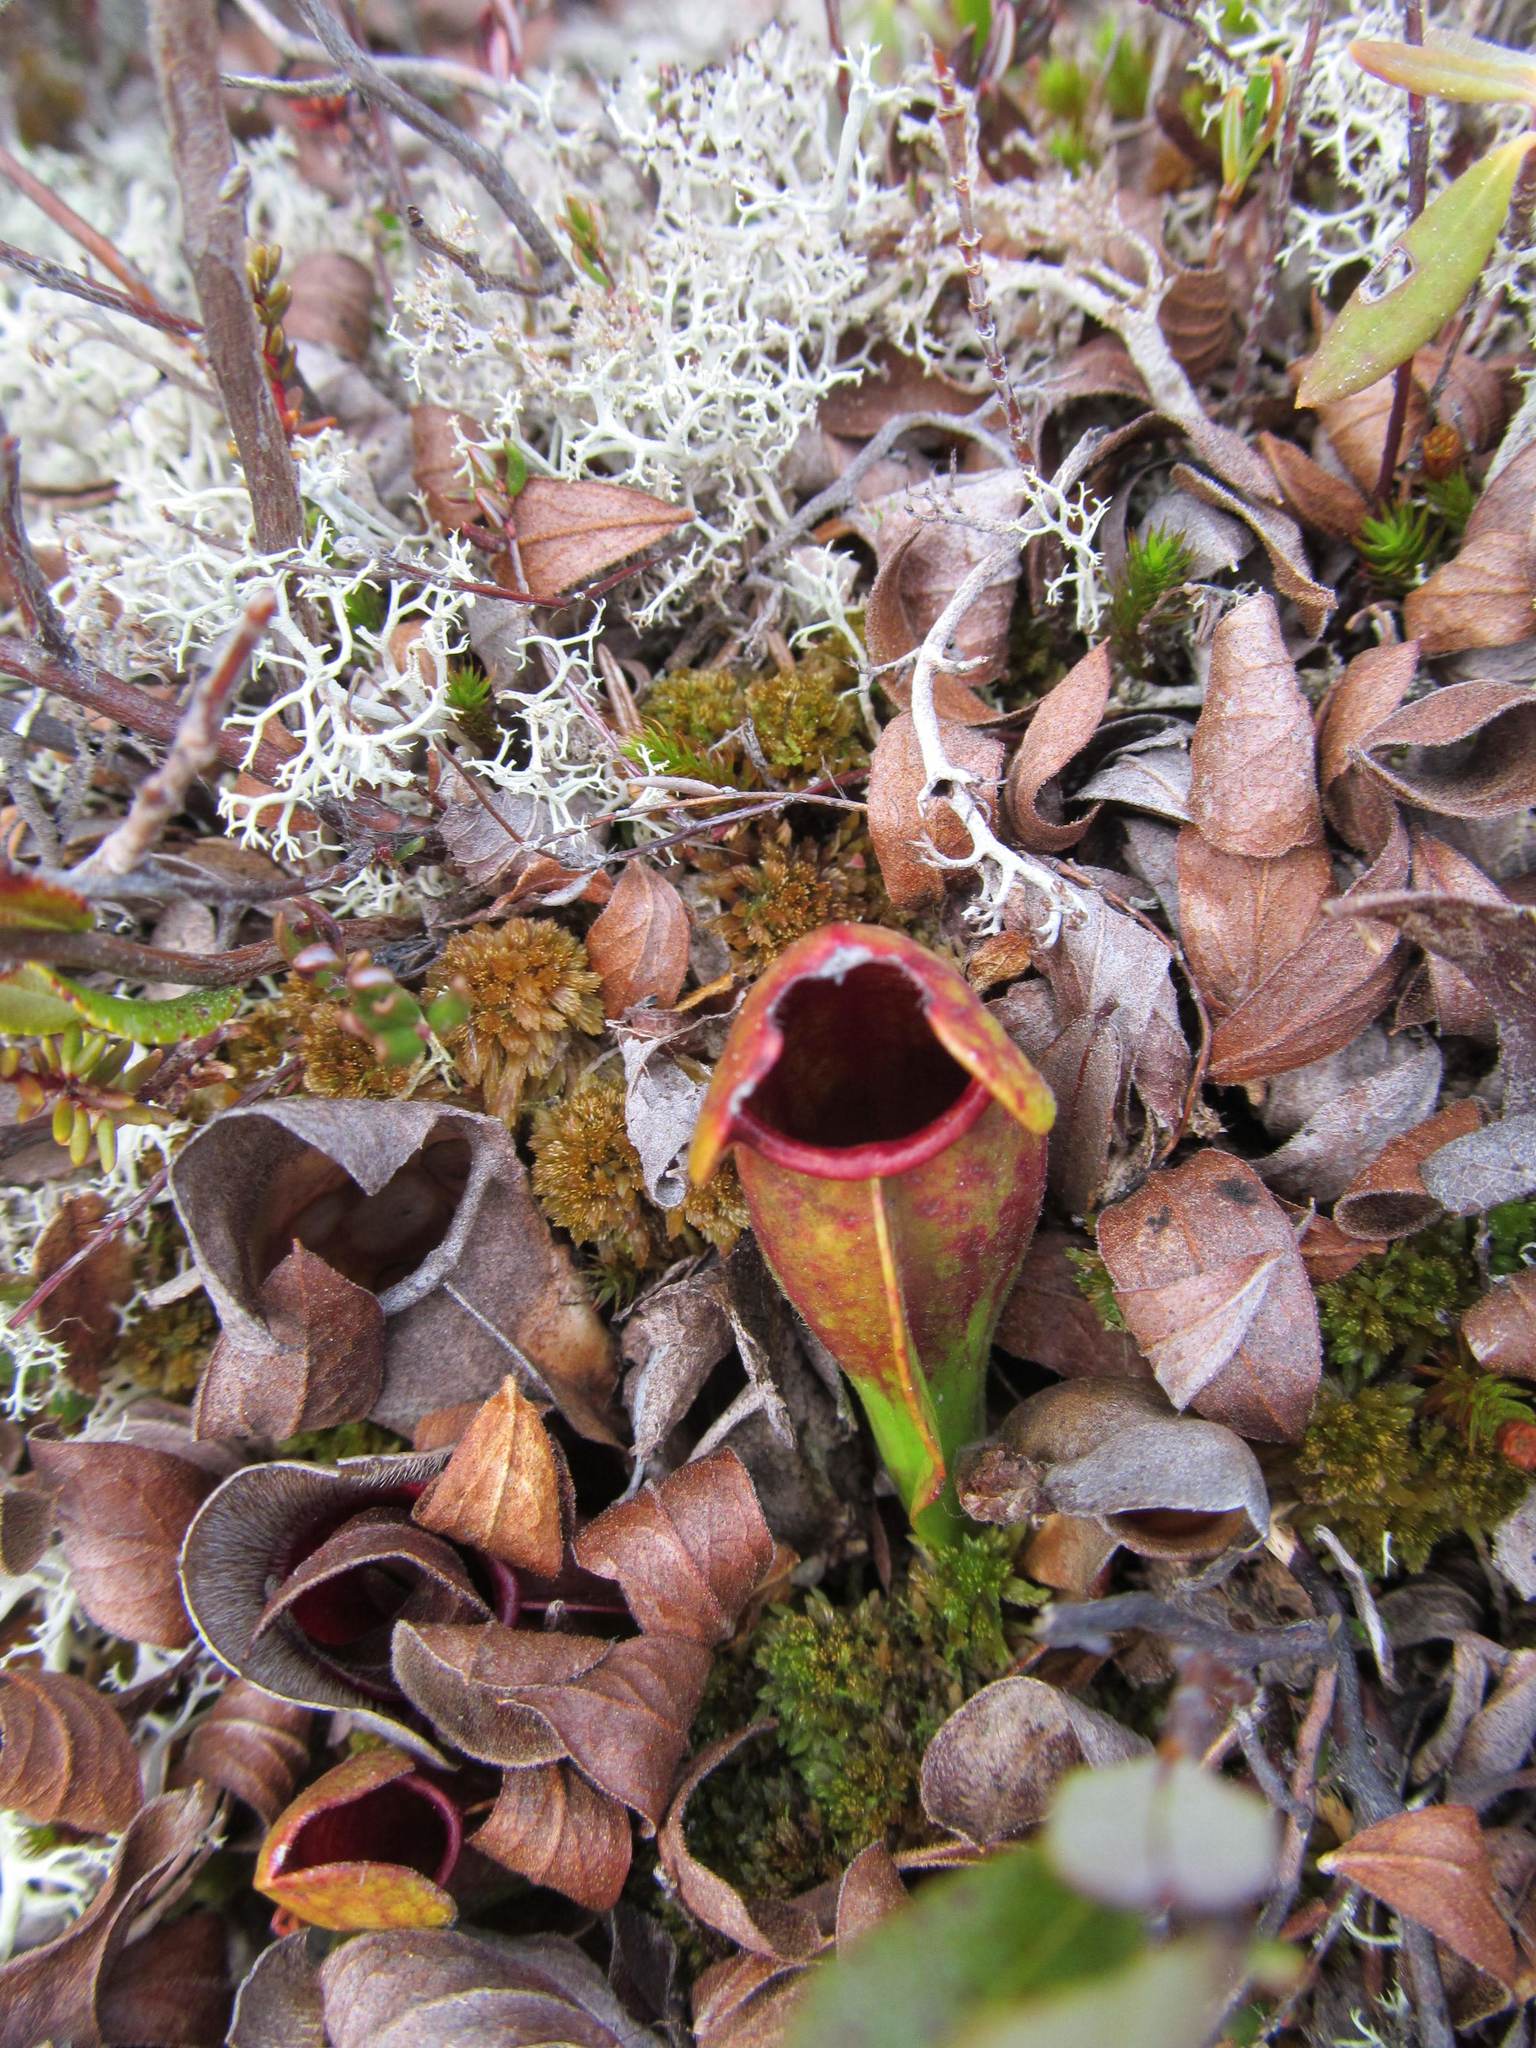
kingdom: Plantae
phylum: Tracheophyta
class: Magnoliopsida
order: Ericales
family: Sarraceniaceae
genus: Sarracenia
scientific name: Sarracenia purpurea
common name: Pitcherplant
